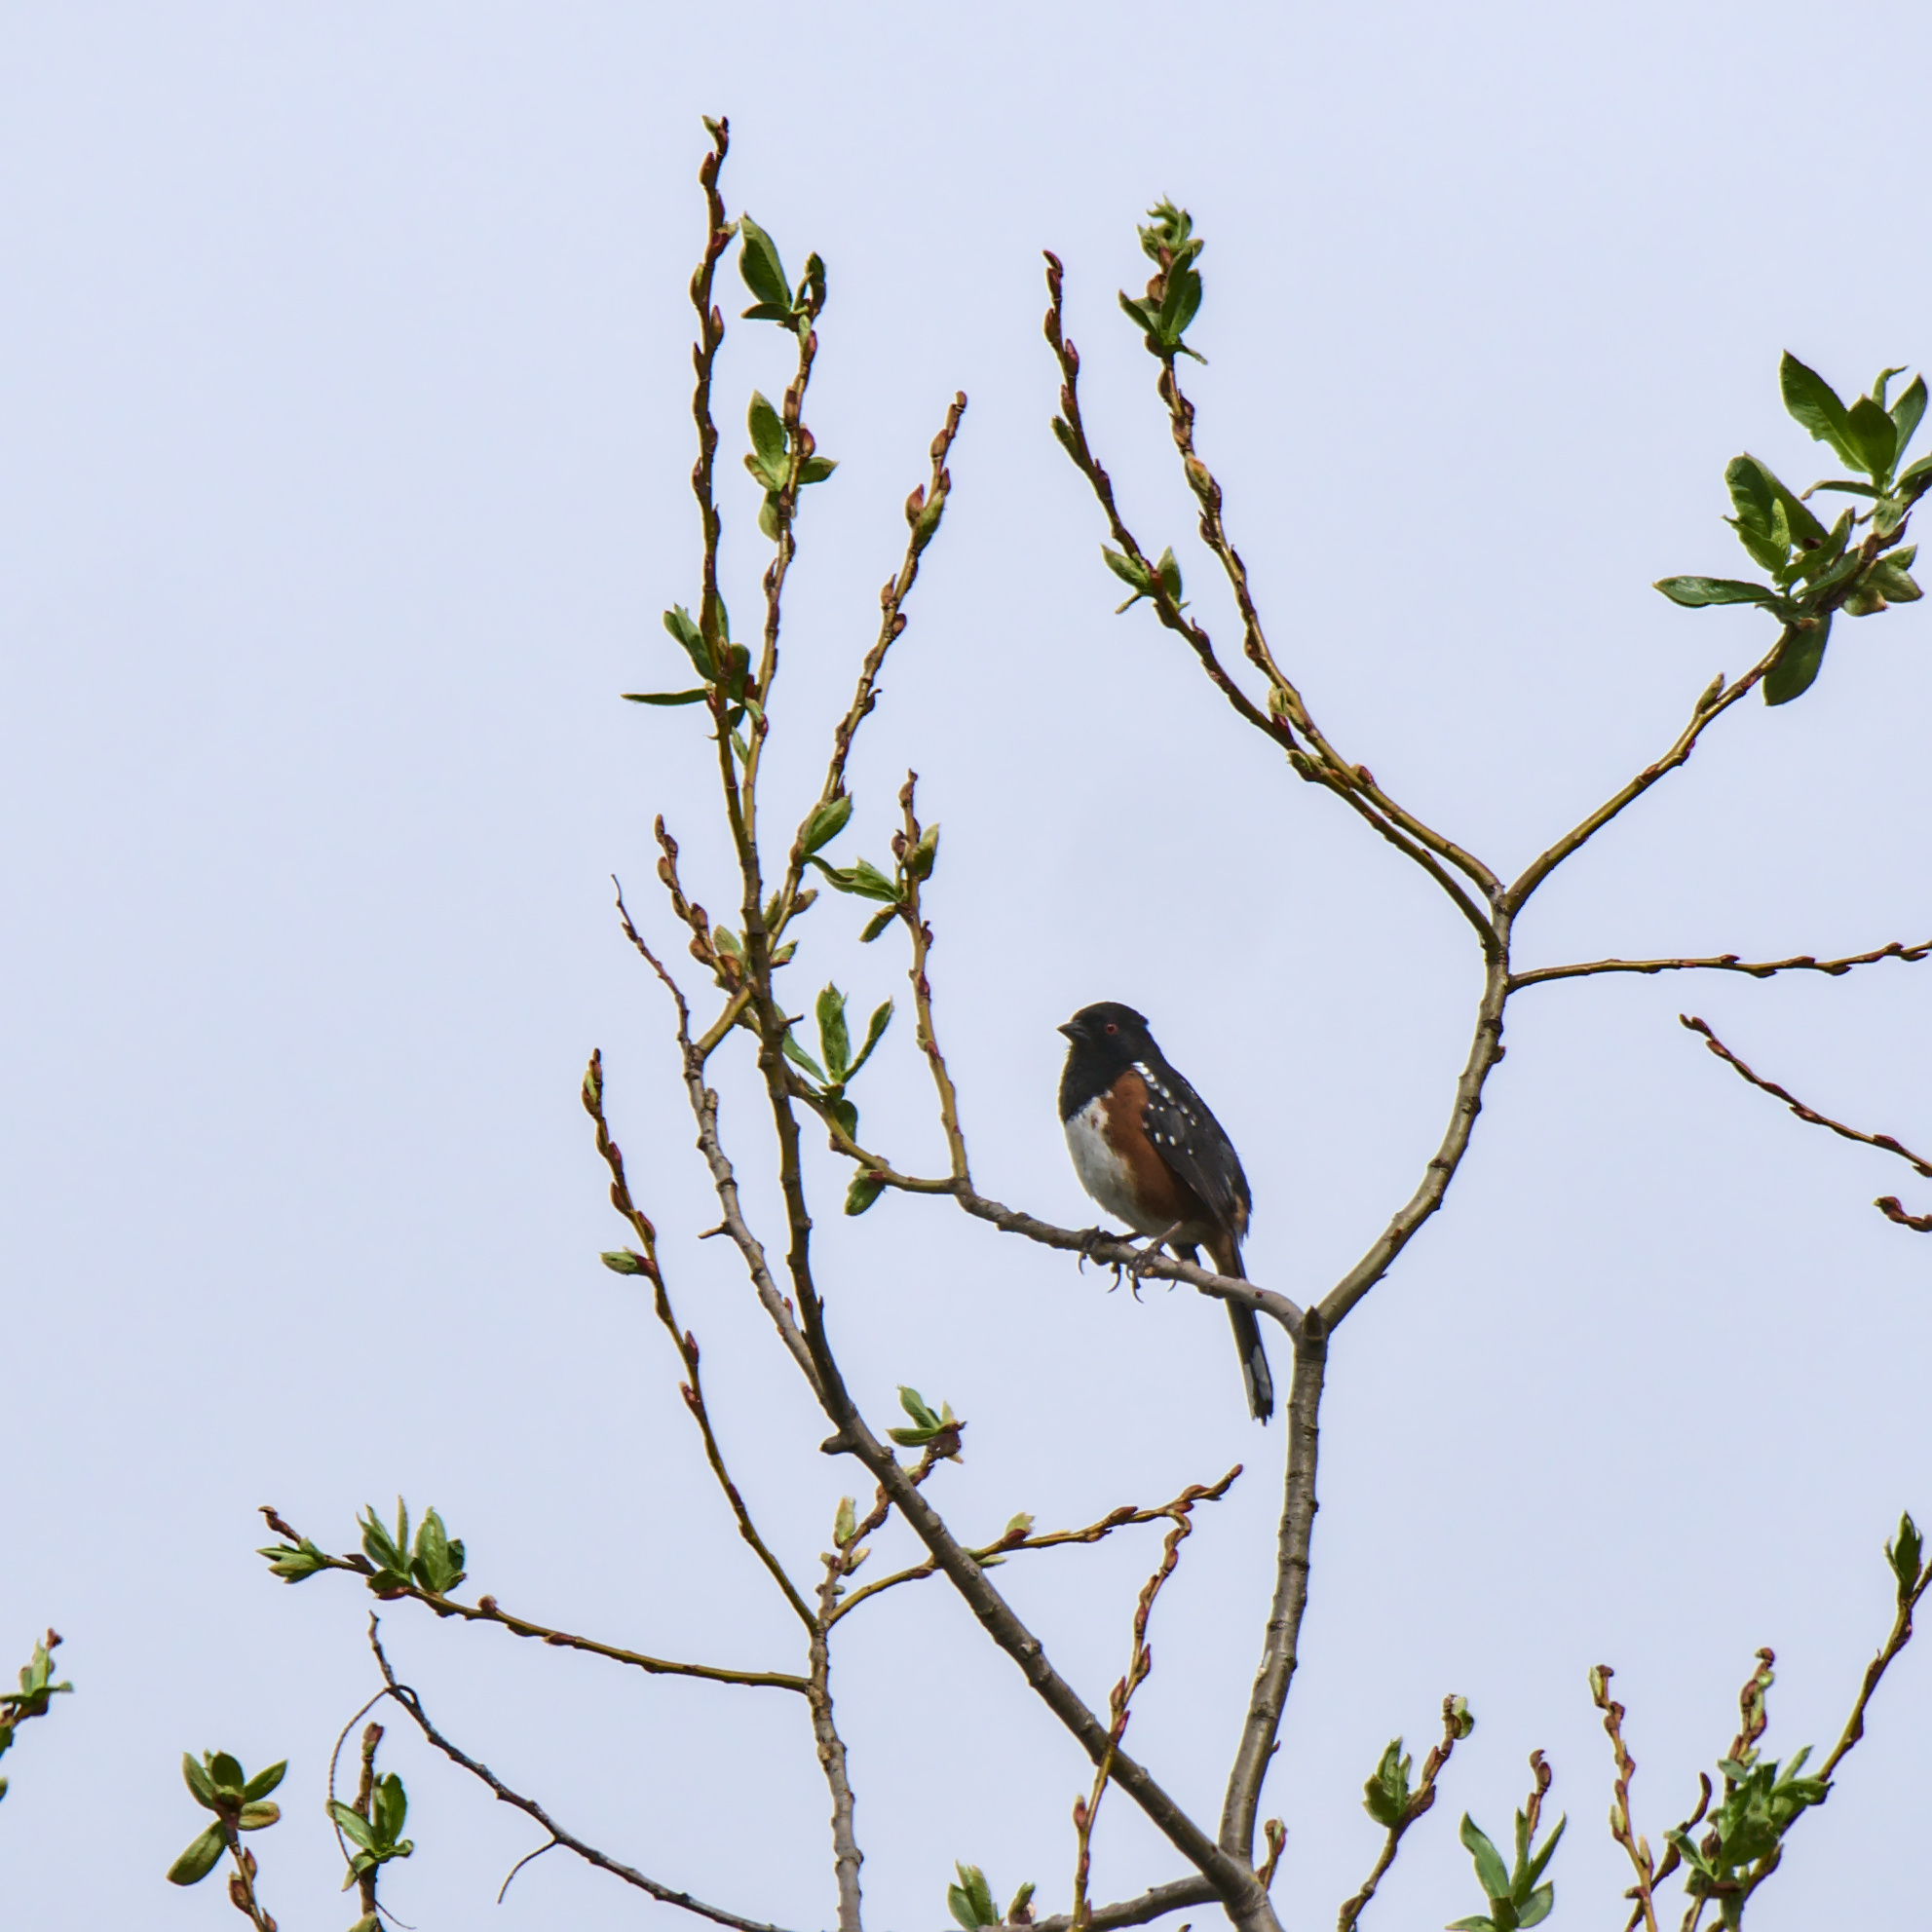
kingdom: Animalia
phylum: Chordata
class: Aves
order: Passeriformes
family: Passerellidae
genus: Pipilo
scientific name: Pipilo maculatus
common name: Spotted towhee
